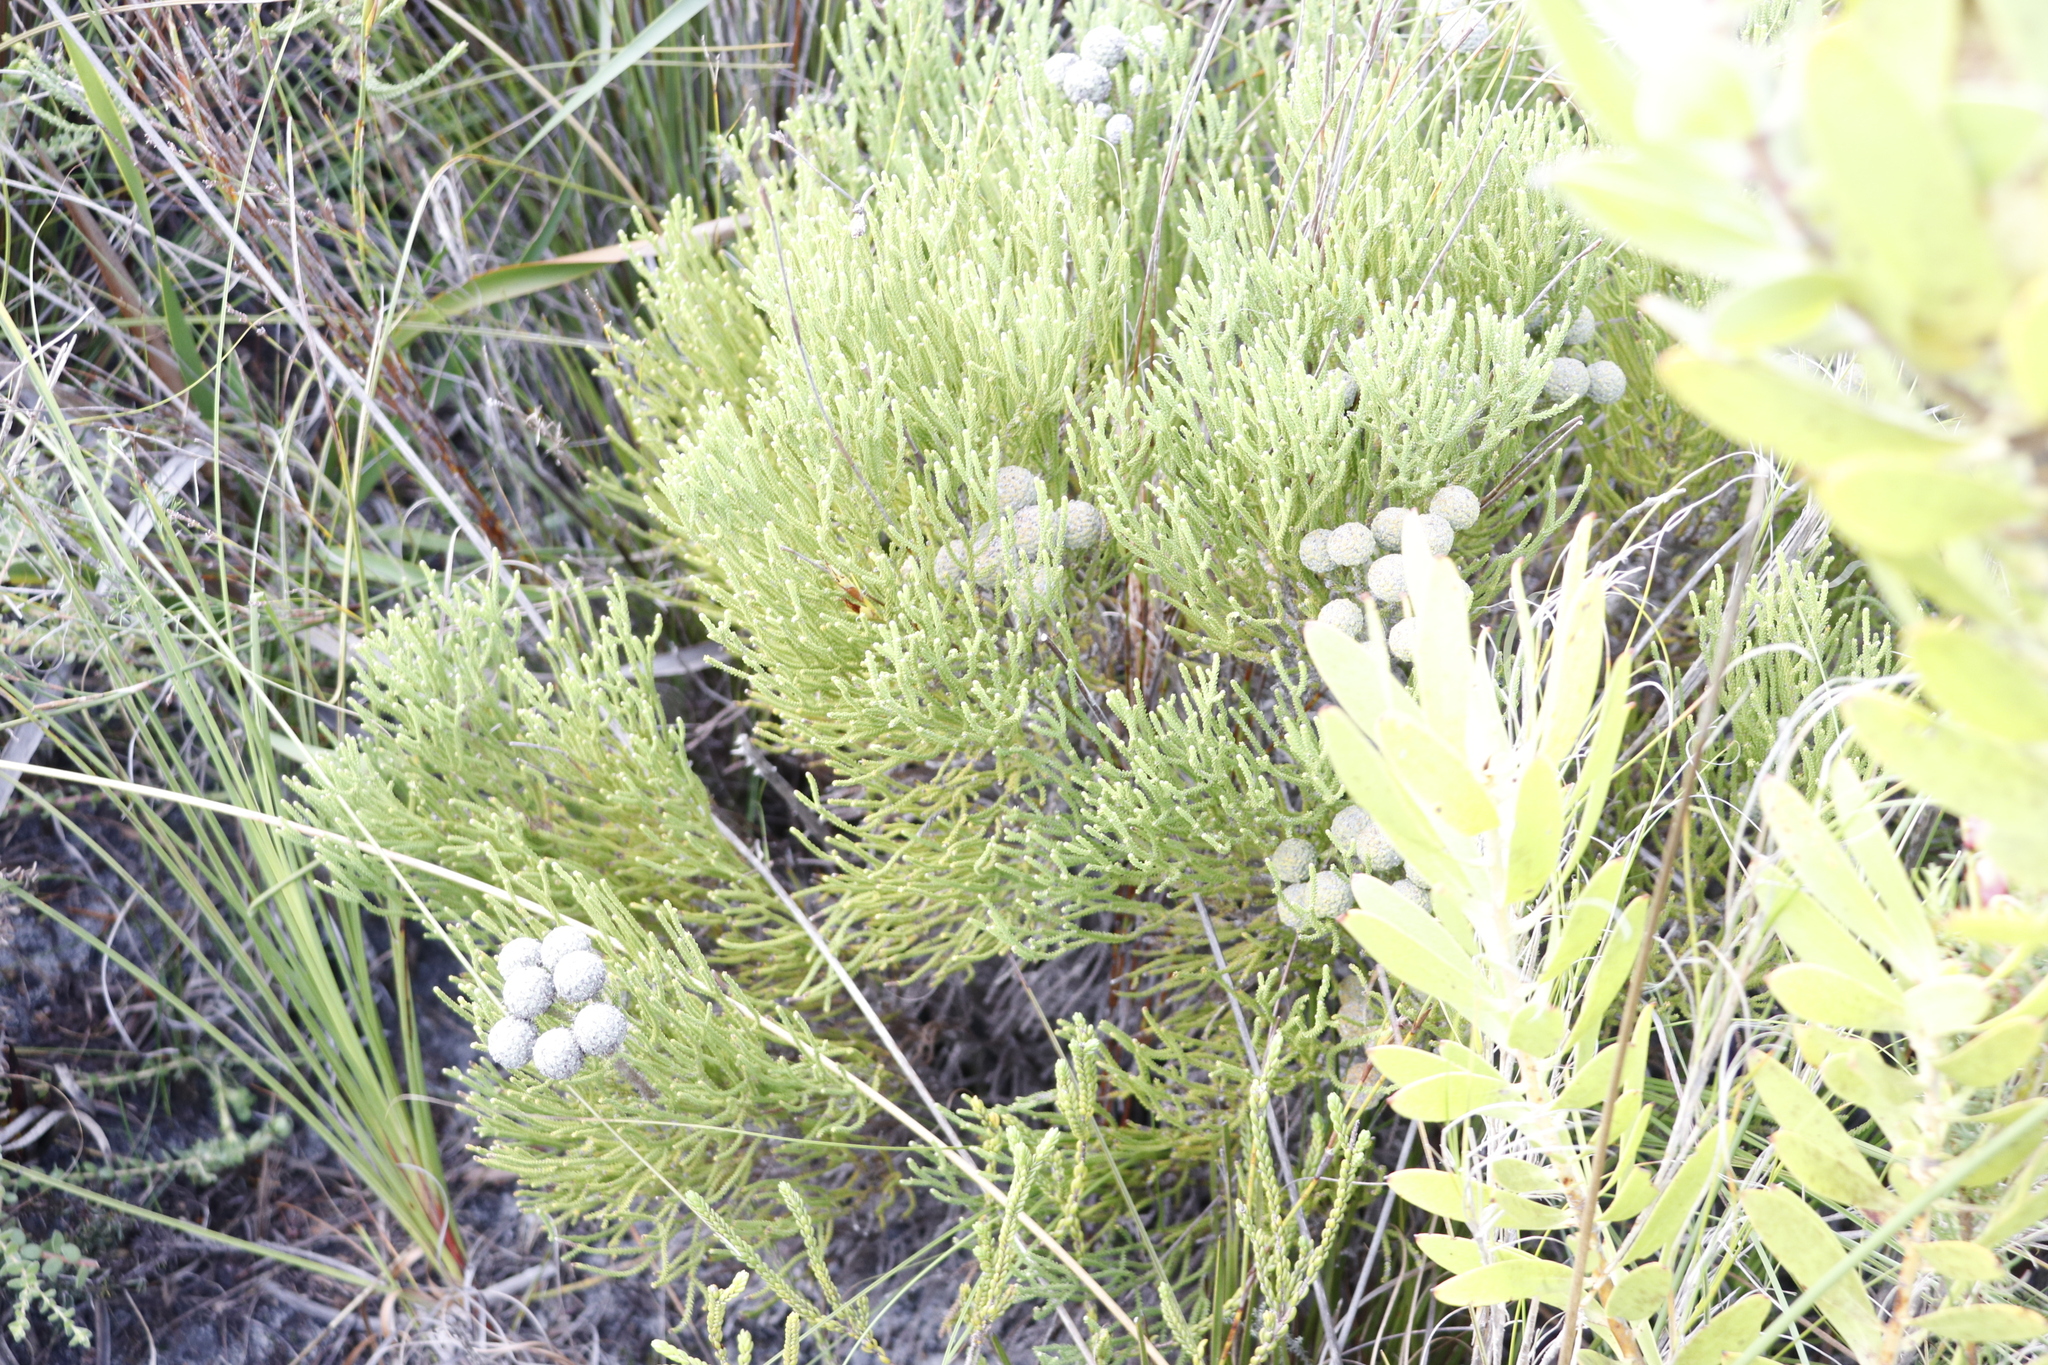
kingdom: Plantae
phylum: Tracheophyta
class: Magnoliopsida
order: Bruniales
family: Bruniaceae
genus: Brunia
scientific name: Brunia noduliflora
